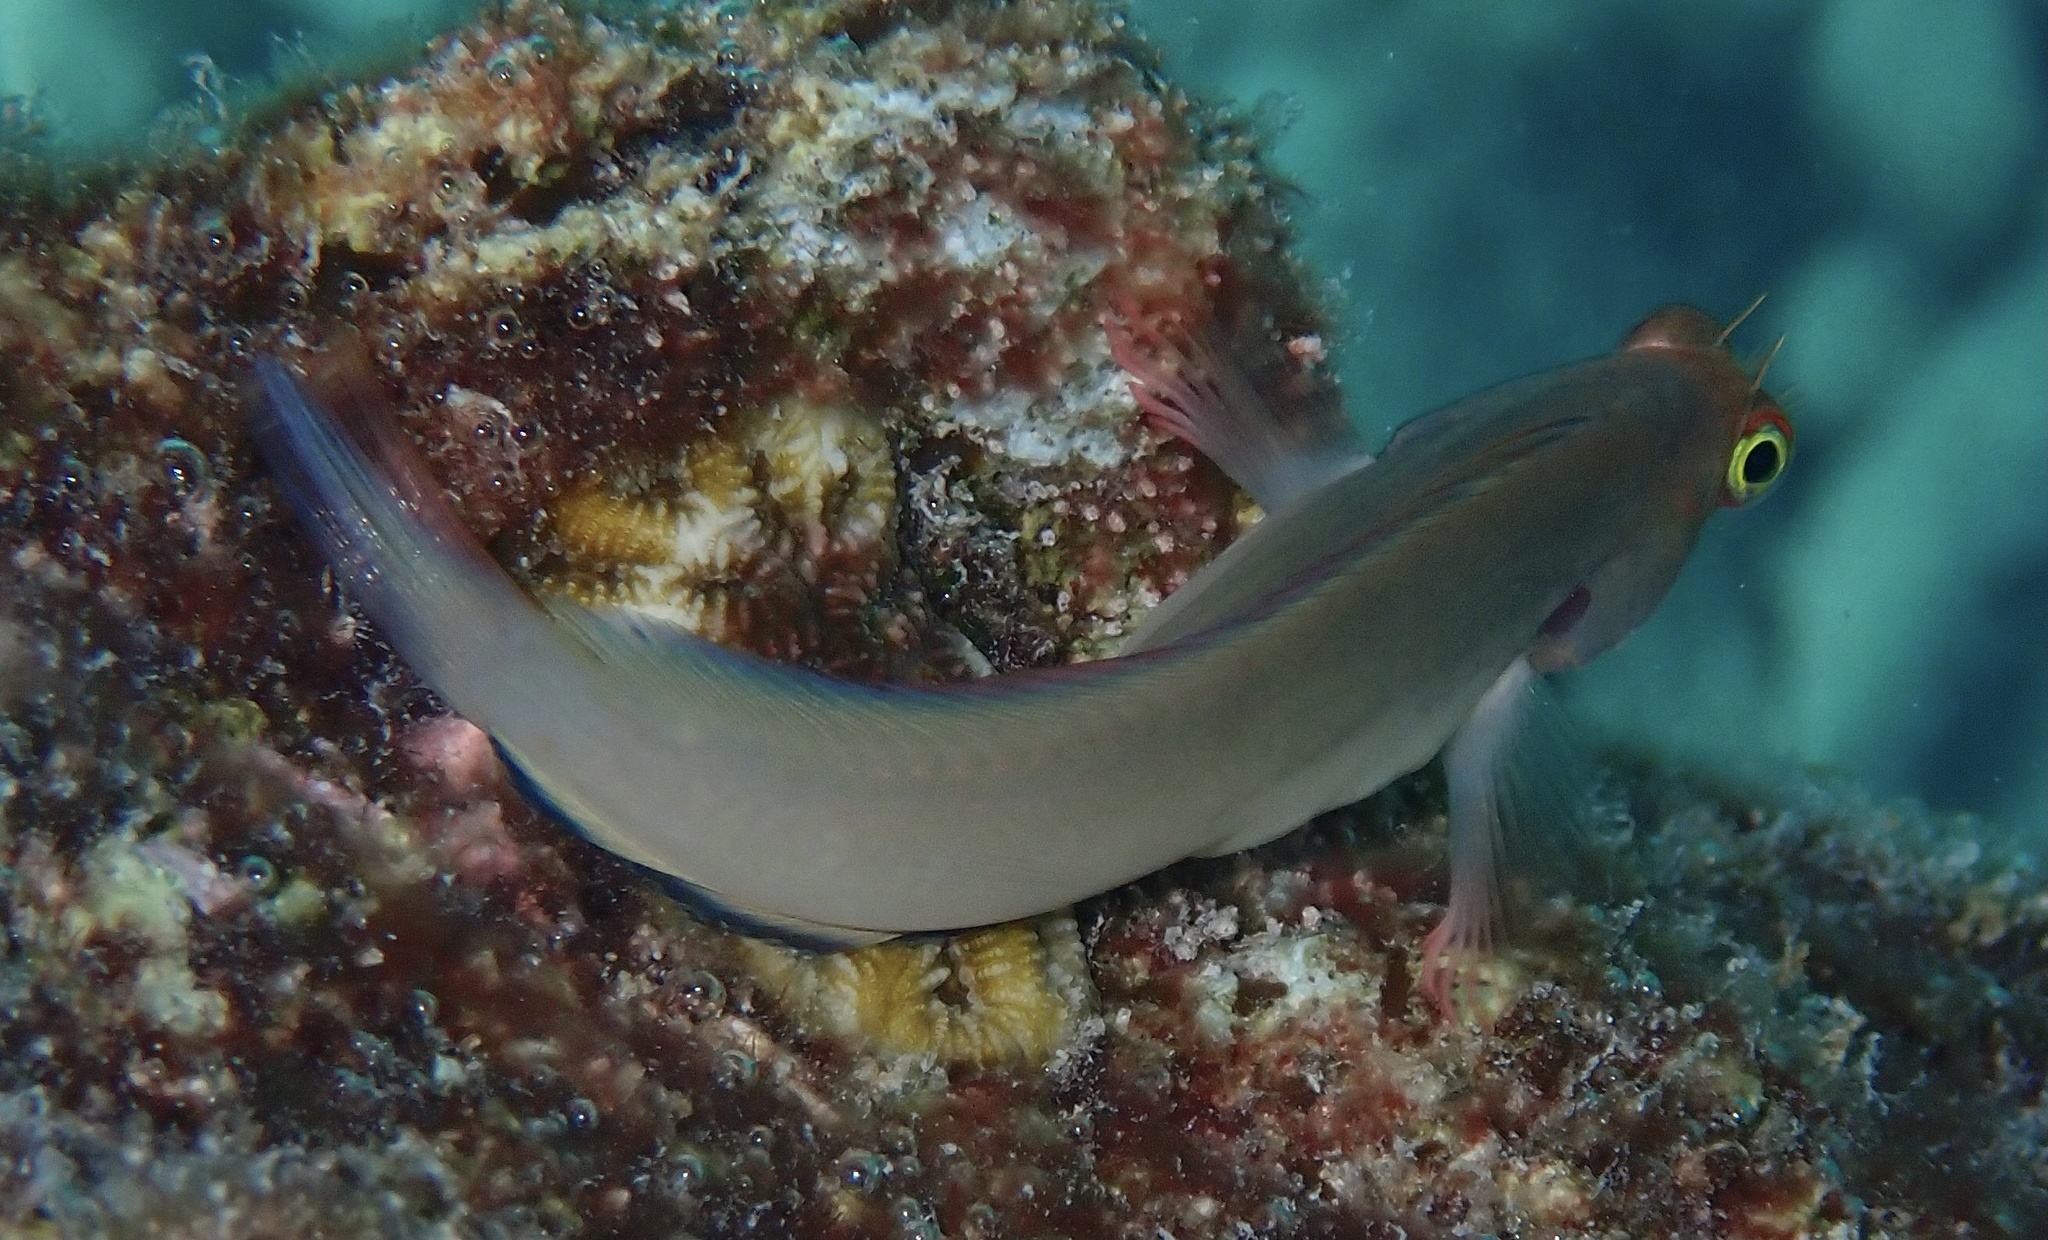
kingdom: Animalia
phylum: Chordata
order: Perciformes
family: Blenniidae
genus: Ophioblennius
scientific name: Ophioblennius macclurei
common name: Redlip blenny
